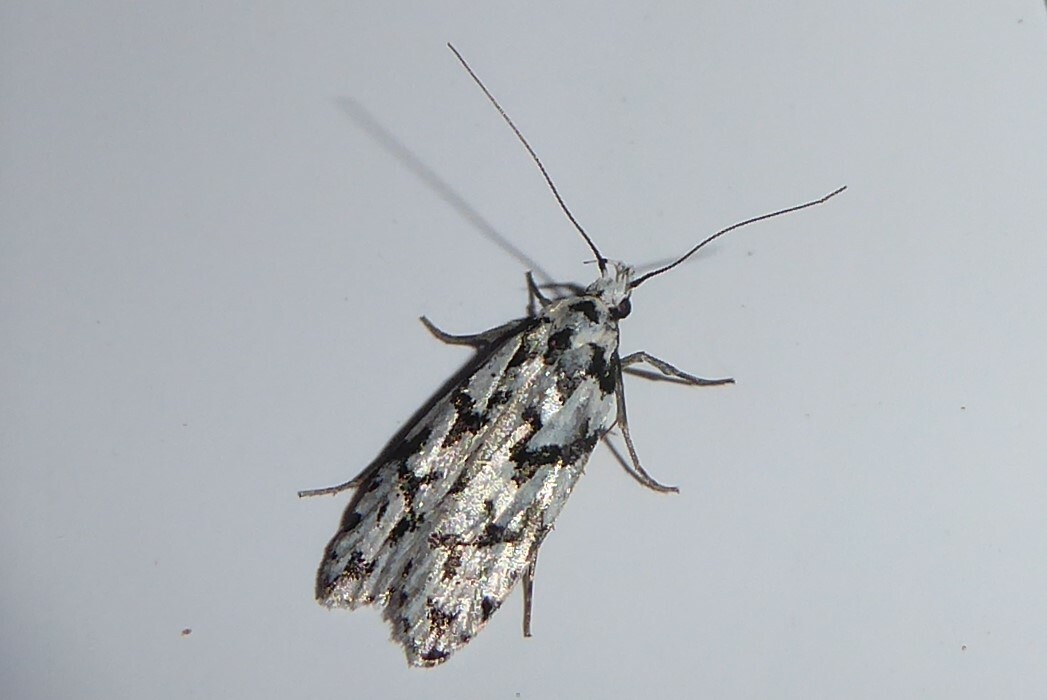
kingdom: Animalia
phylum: Arthropoda
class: Insecta
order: Lepidoptera
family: Oecophoridae
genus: Izatha
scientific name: Izatha katadiktya
